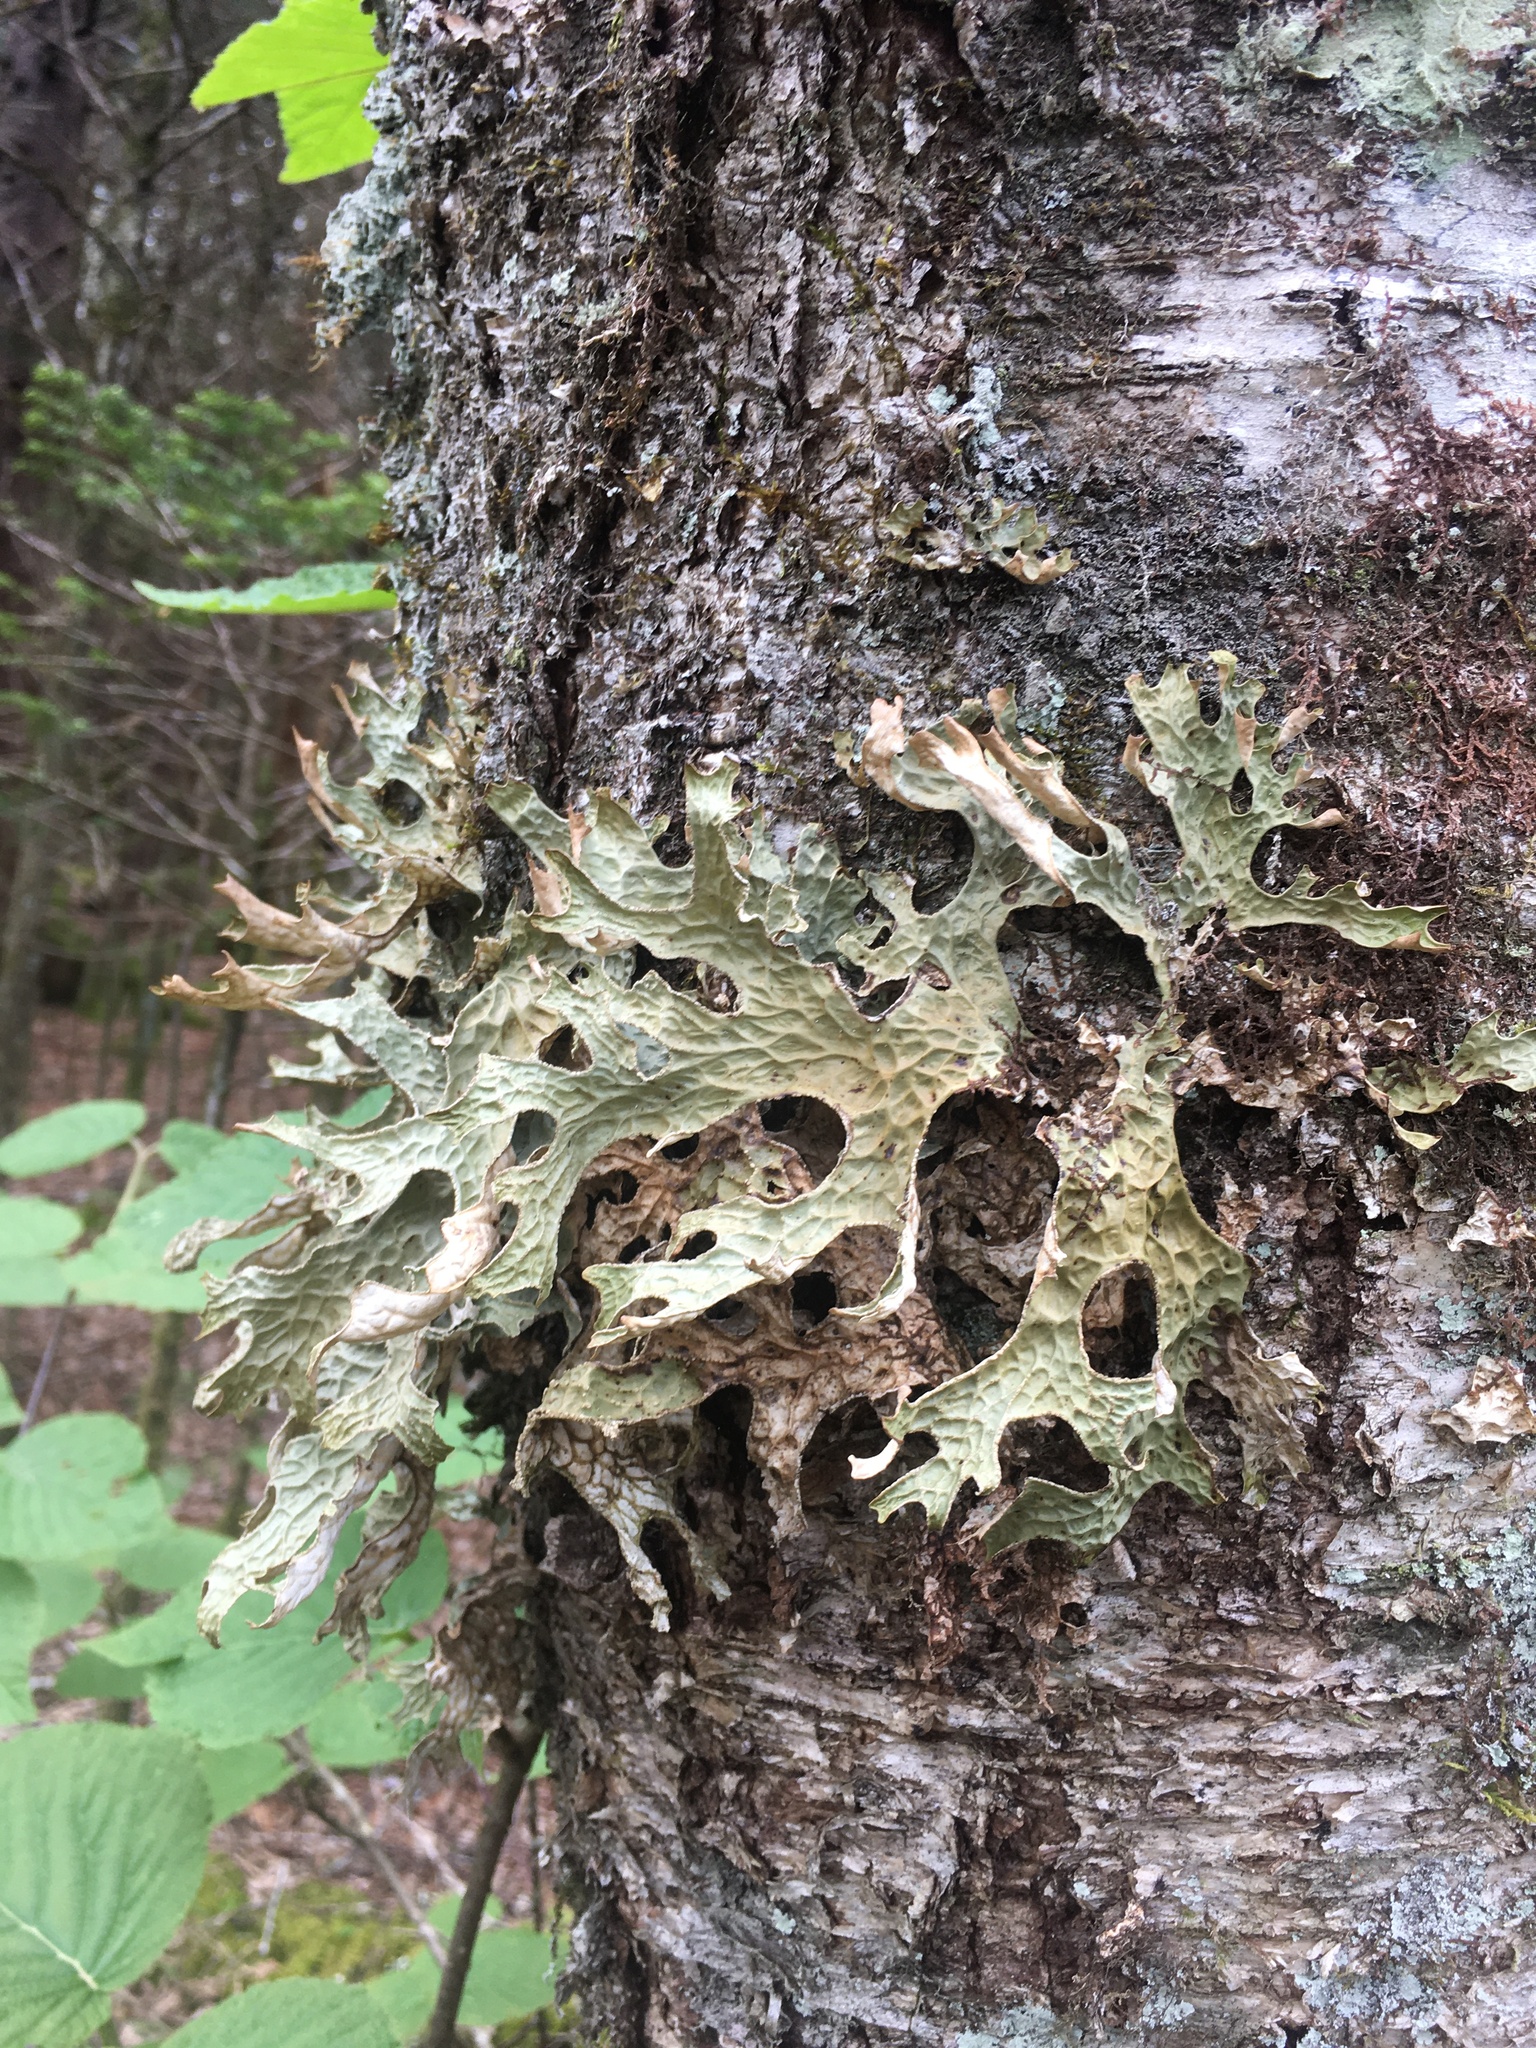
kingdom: Fungi
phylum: Ascomycota
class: Lecanoromycetes
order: Peltigerales
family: Lobariaceae
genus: Lobaria
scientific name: Lobaria pulmonaria
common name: Lungwort
